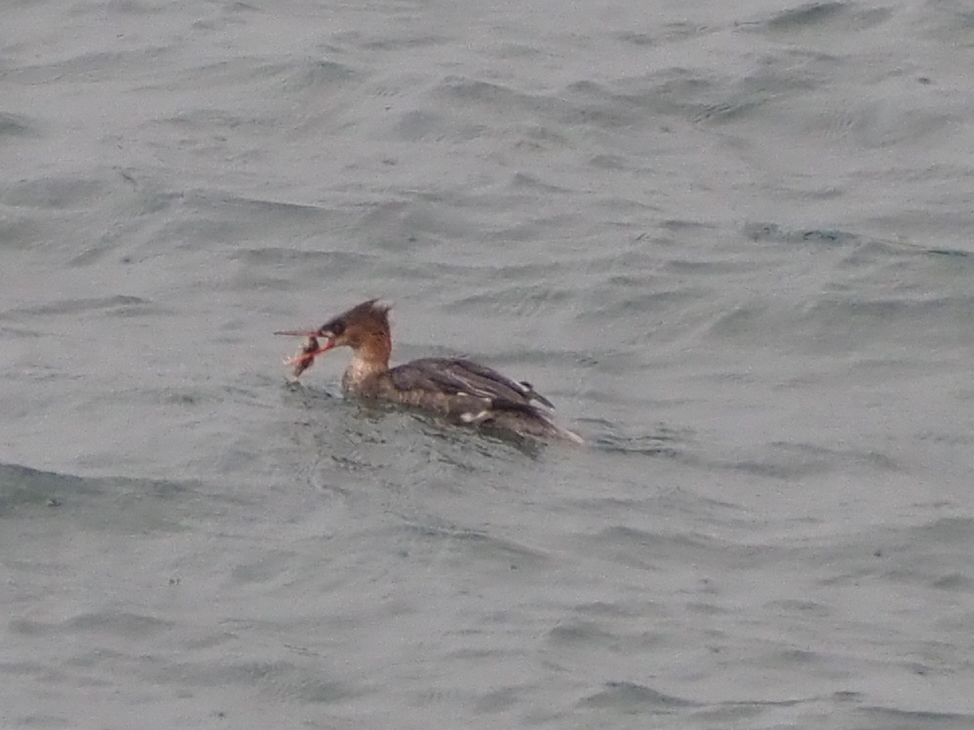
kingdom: Animalia
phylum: Chordata
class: Aves
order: Anseriformes
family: Anatidae
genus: Mergus
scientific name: Mergus serrator
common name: Red-breasted merganser
